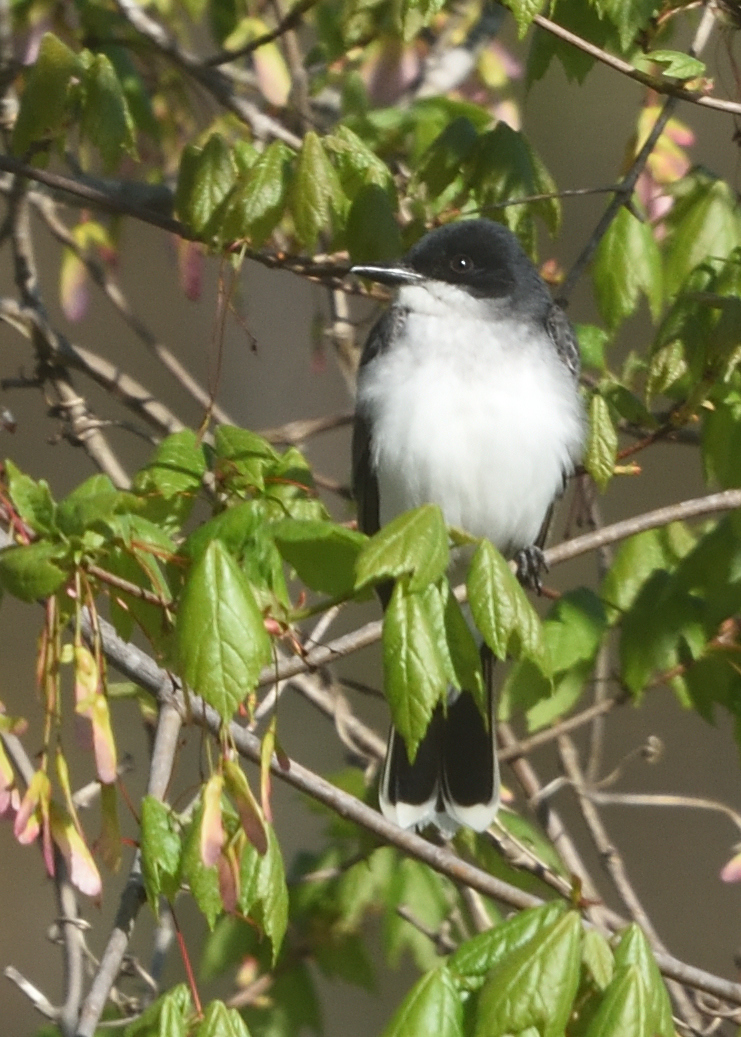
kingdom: Animalia
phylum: Chordata
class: Aves
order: Passeriformes
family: Tyrannidae
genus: Tyrannus
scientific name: Tyrannus tyrannus
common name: Eastern kingbird
